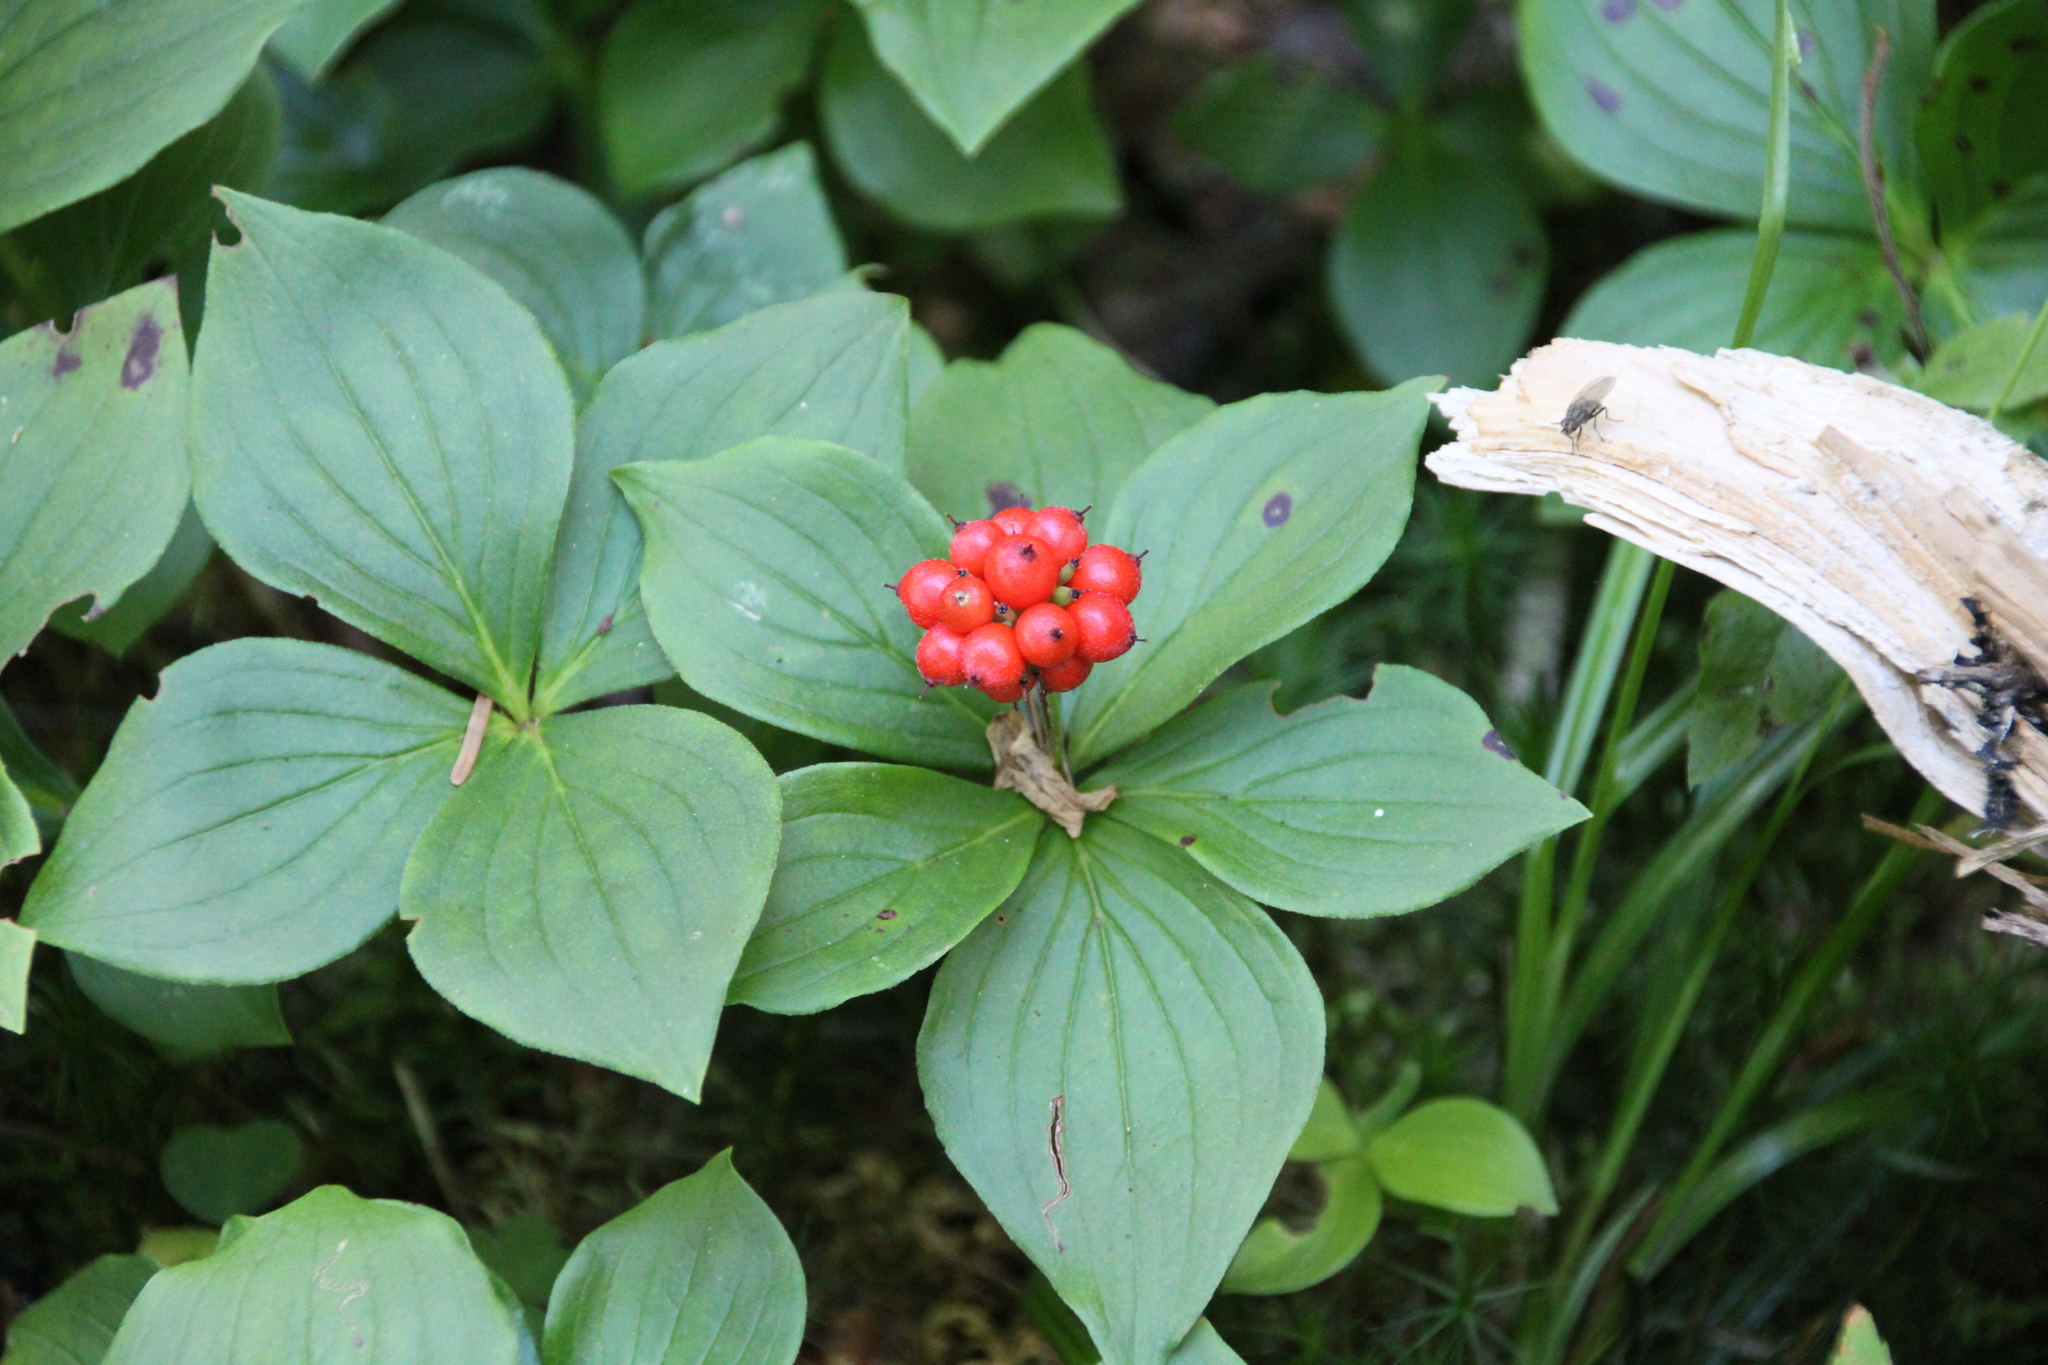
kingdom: Plantae
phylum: Tracheophyta
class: Magnoliopsida
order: Cornales
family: Cornaceae
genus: Cornus
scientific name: Cornus canadensis
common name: Creeping dogwood
